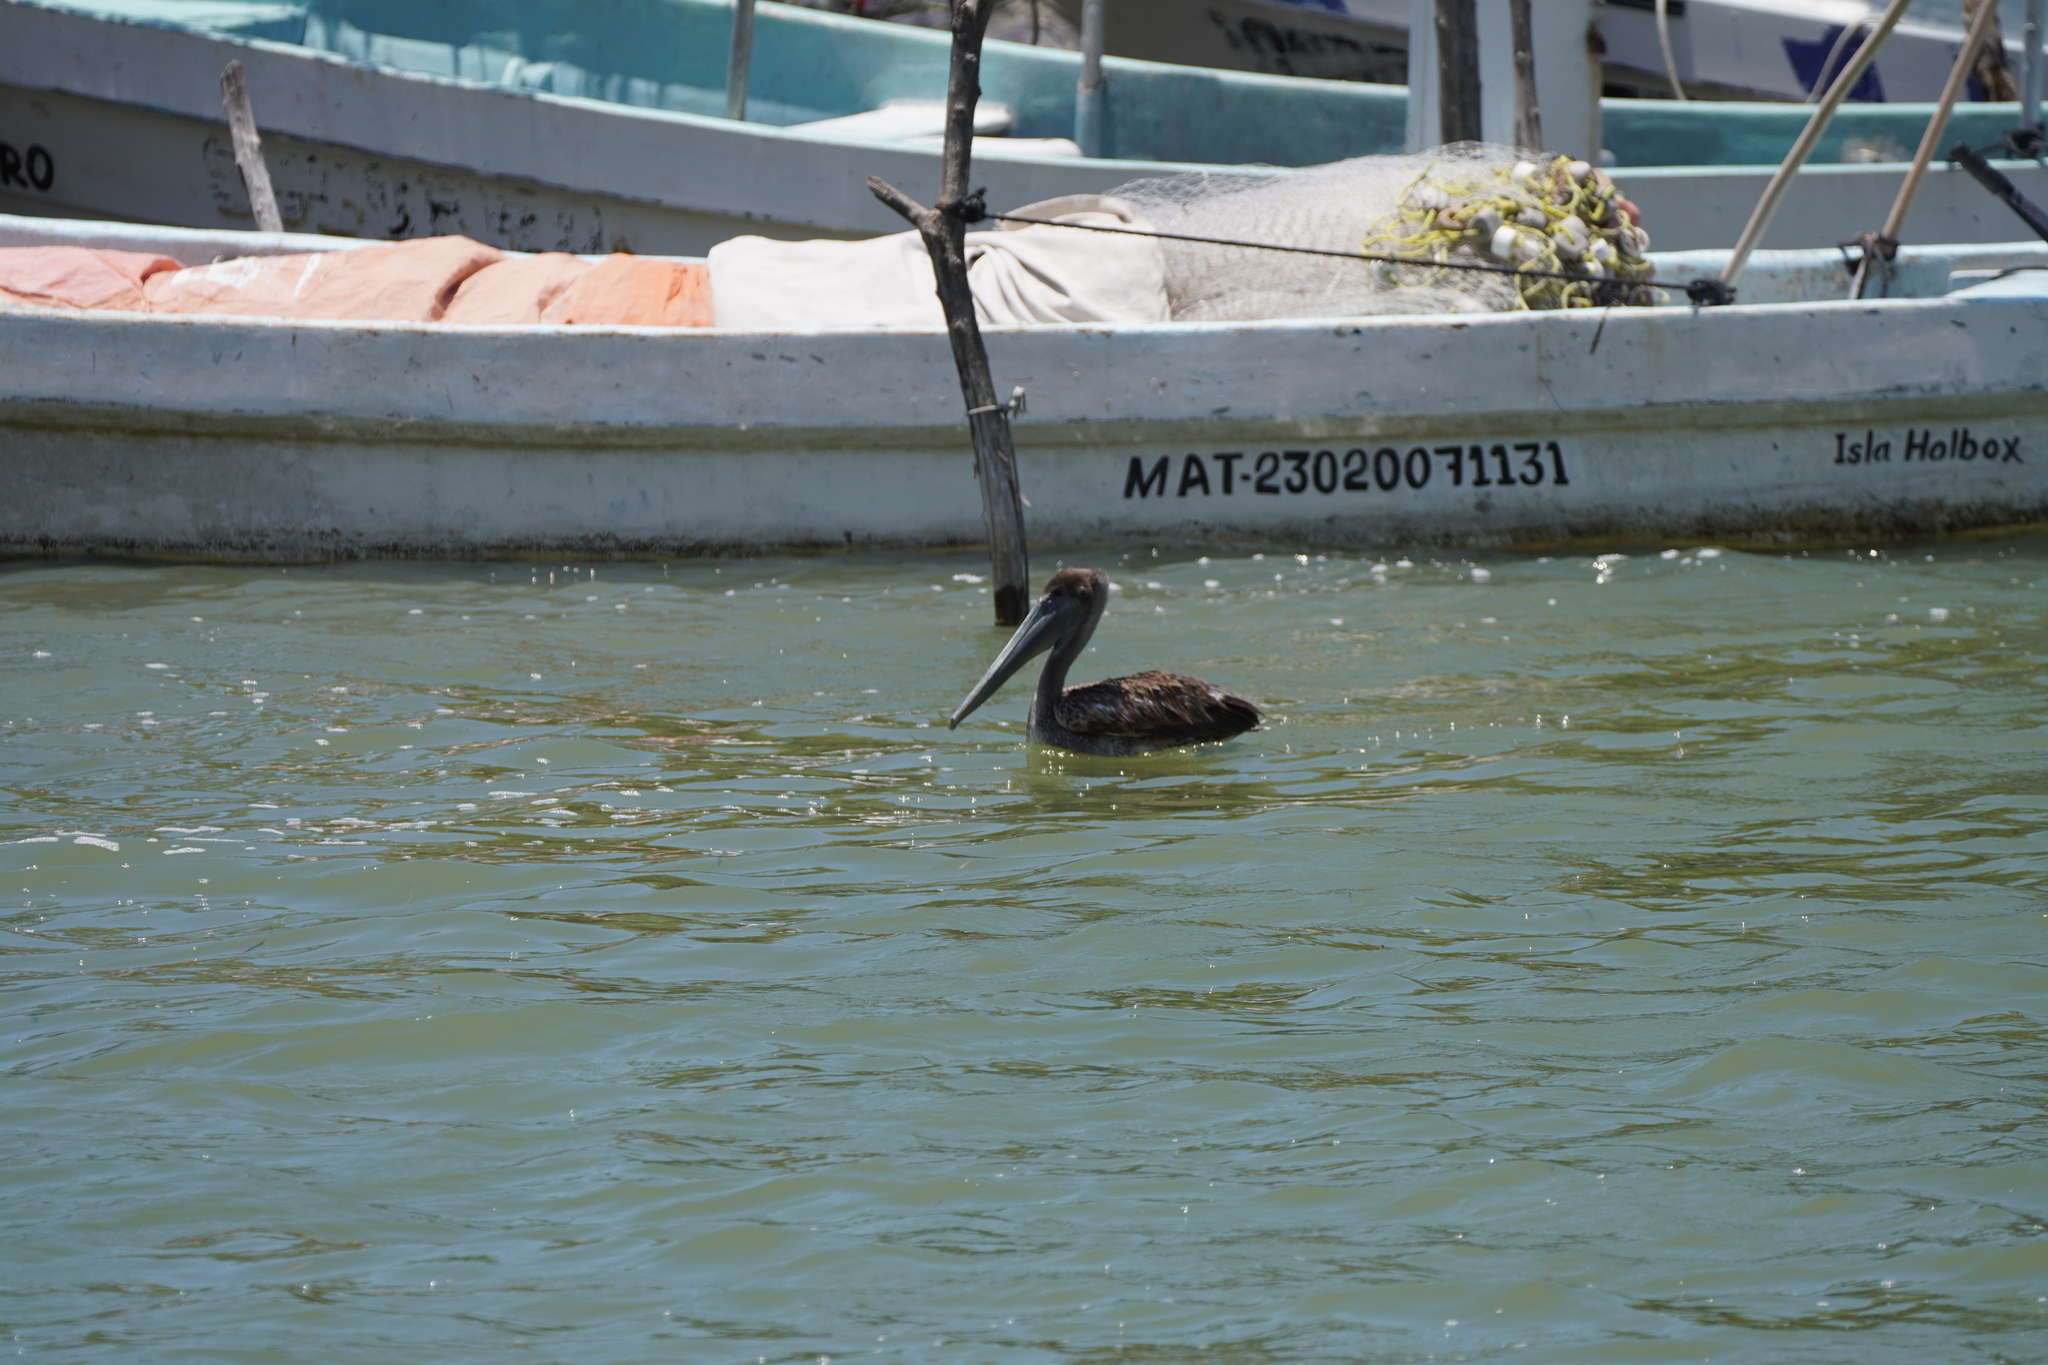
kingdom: Animalia
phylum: Chordata
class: Aves
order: Pelecaniformes
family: Pelecanidae
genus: Pelecanus
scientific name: Pelecanus occidentalis
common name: Brown pelican
